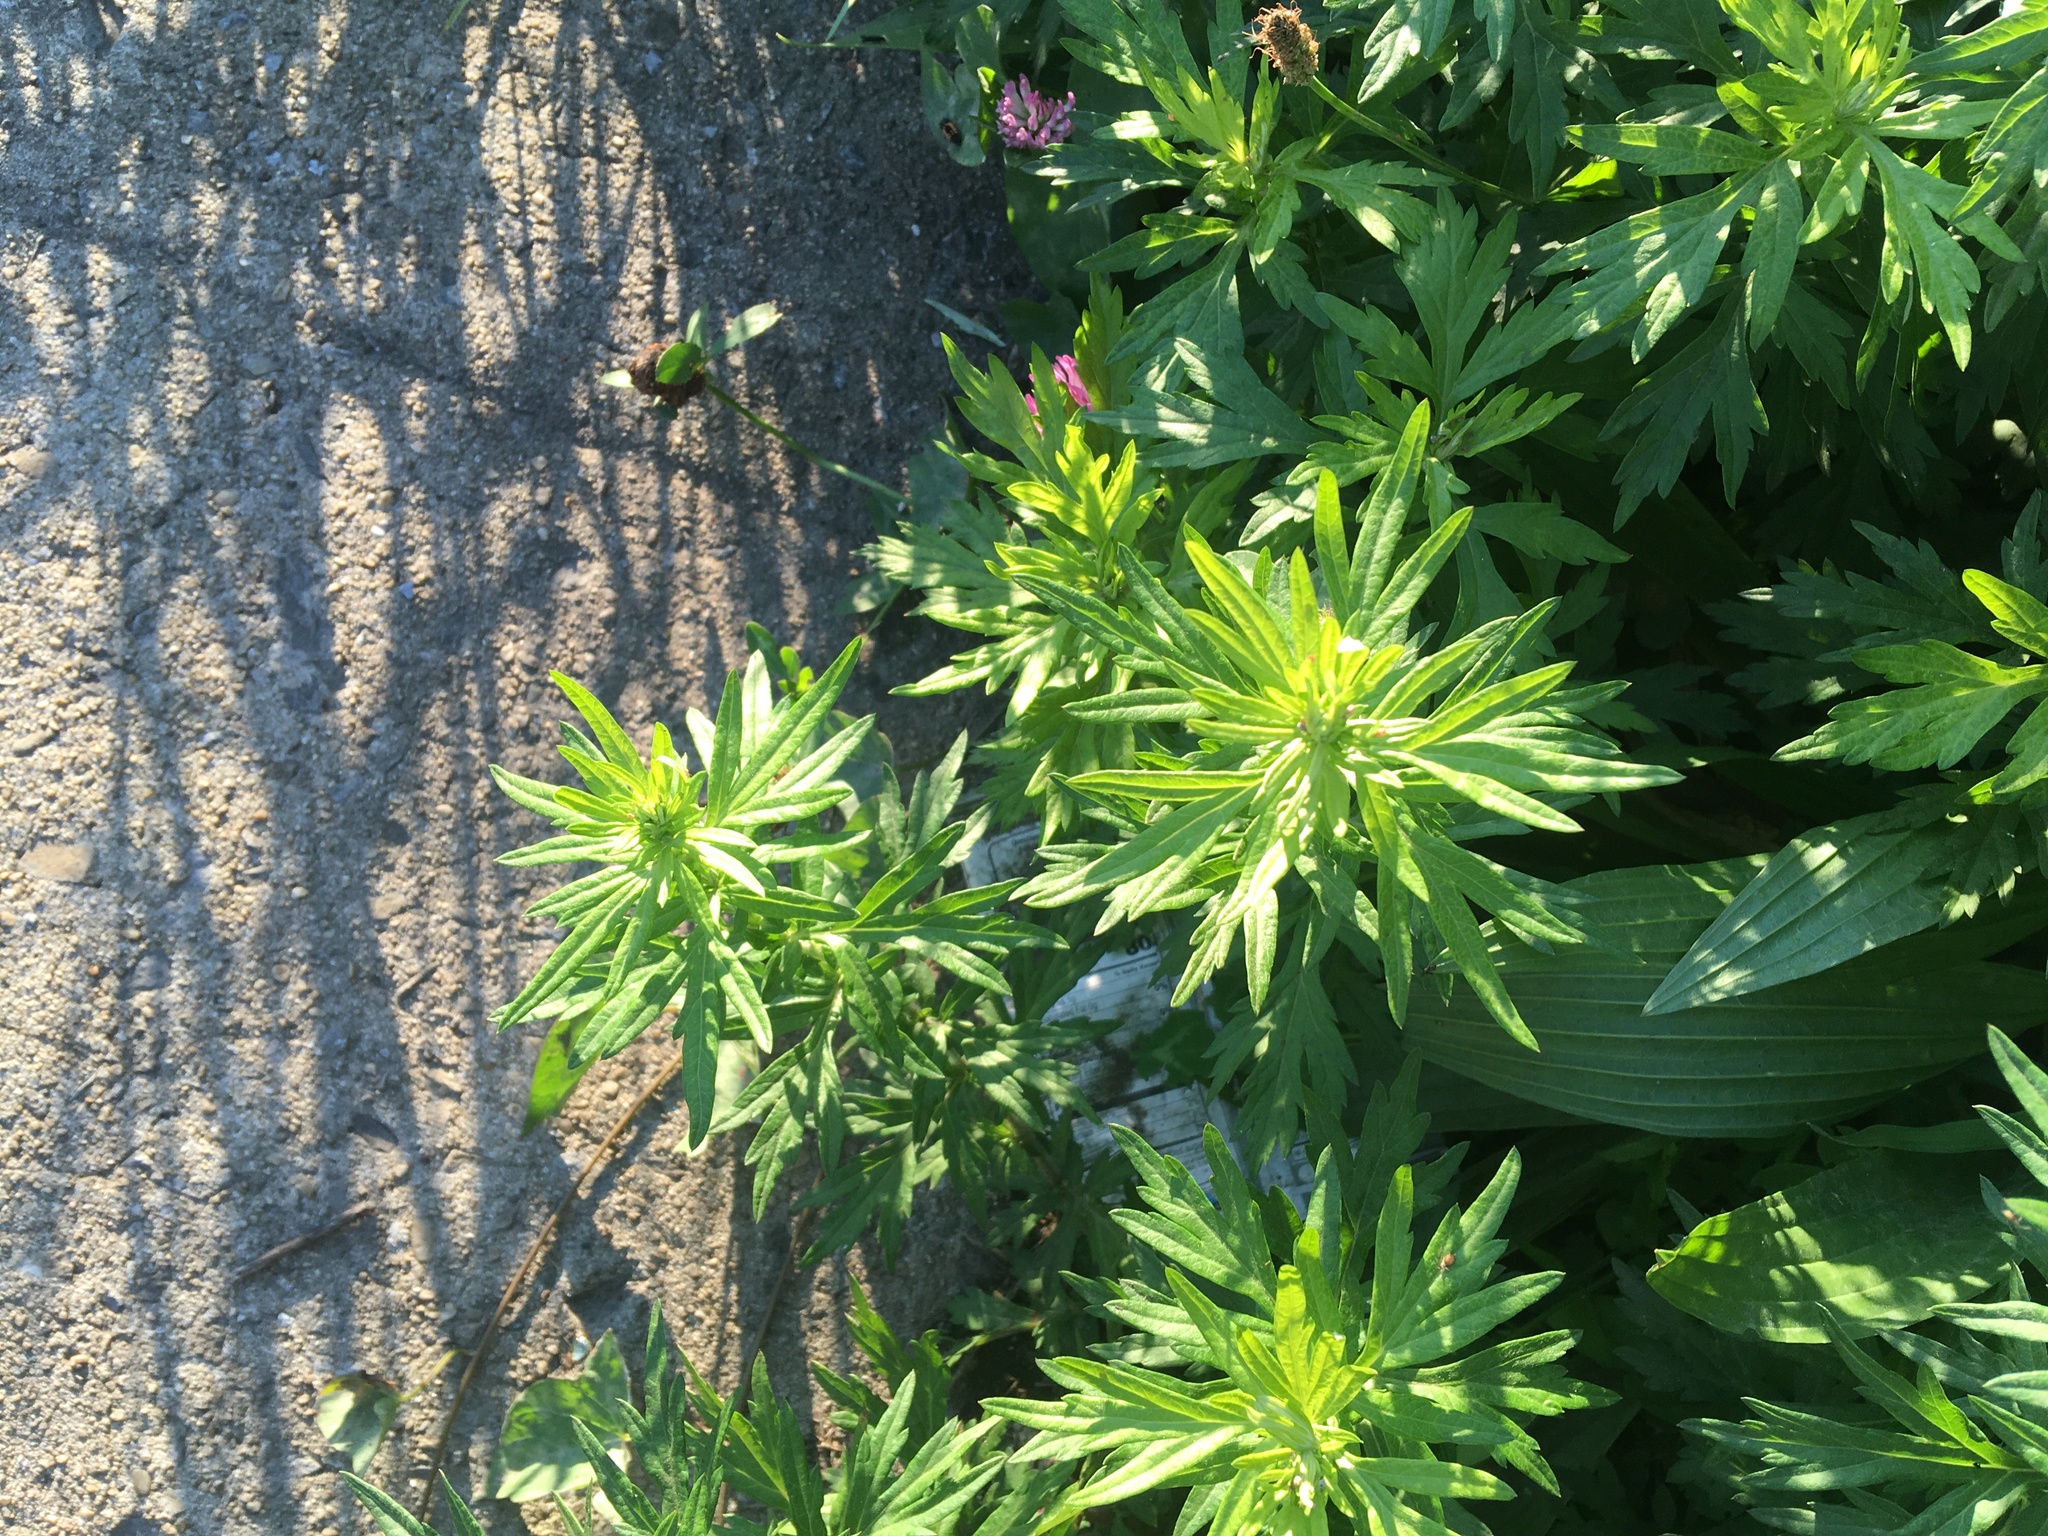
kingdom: Plantae
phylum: Tracheophyta
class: Magnoliopsida
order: Asterales
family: Asteraceae
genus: Artemisia
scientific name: Artemisia vulgaris
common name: Mugwort
